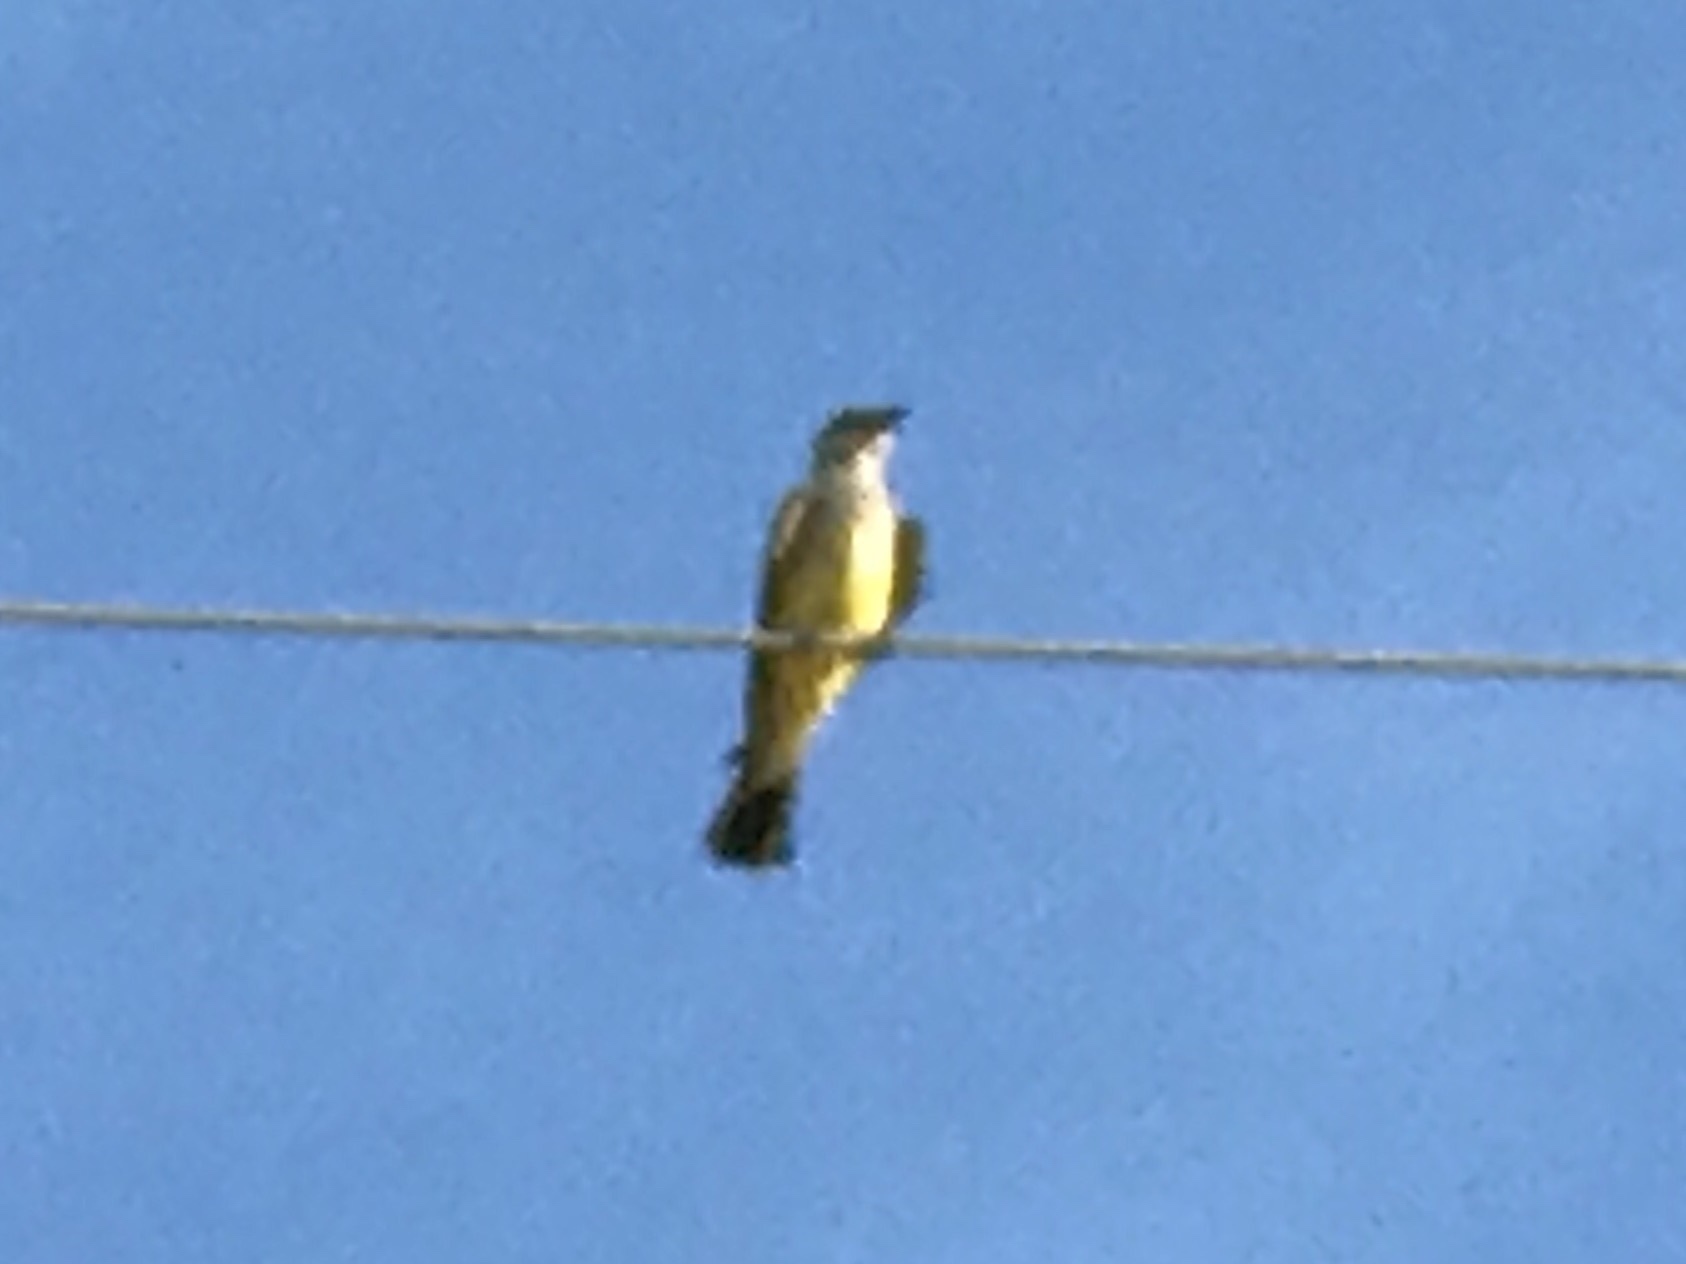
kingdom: Animalia
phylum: Chordata
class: Aves
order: Passeriformes
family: Tyrannidae
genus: Tyrannus
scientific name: Tyrannus
